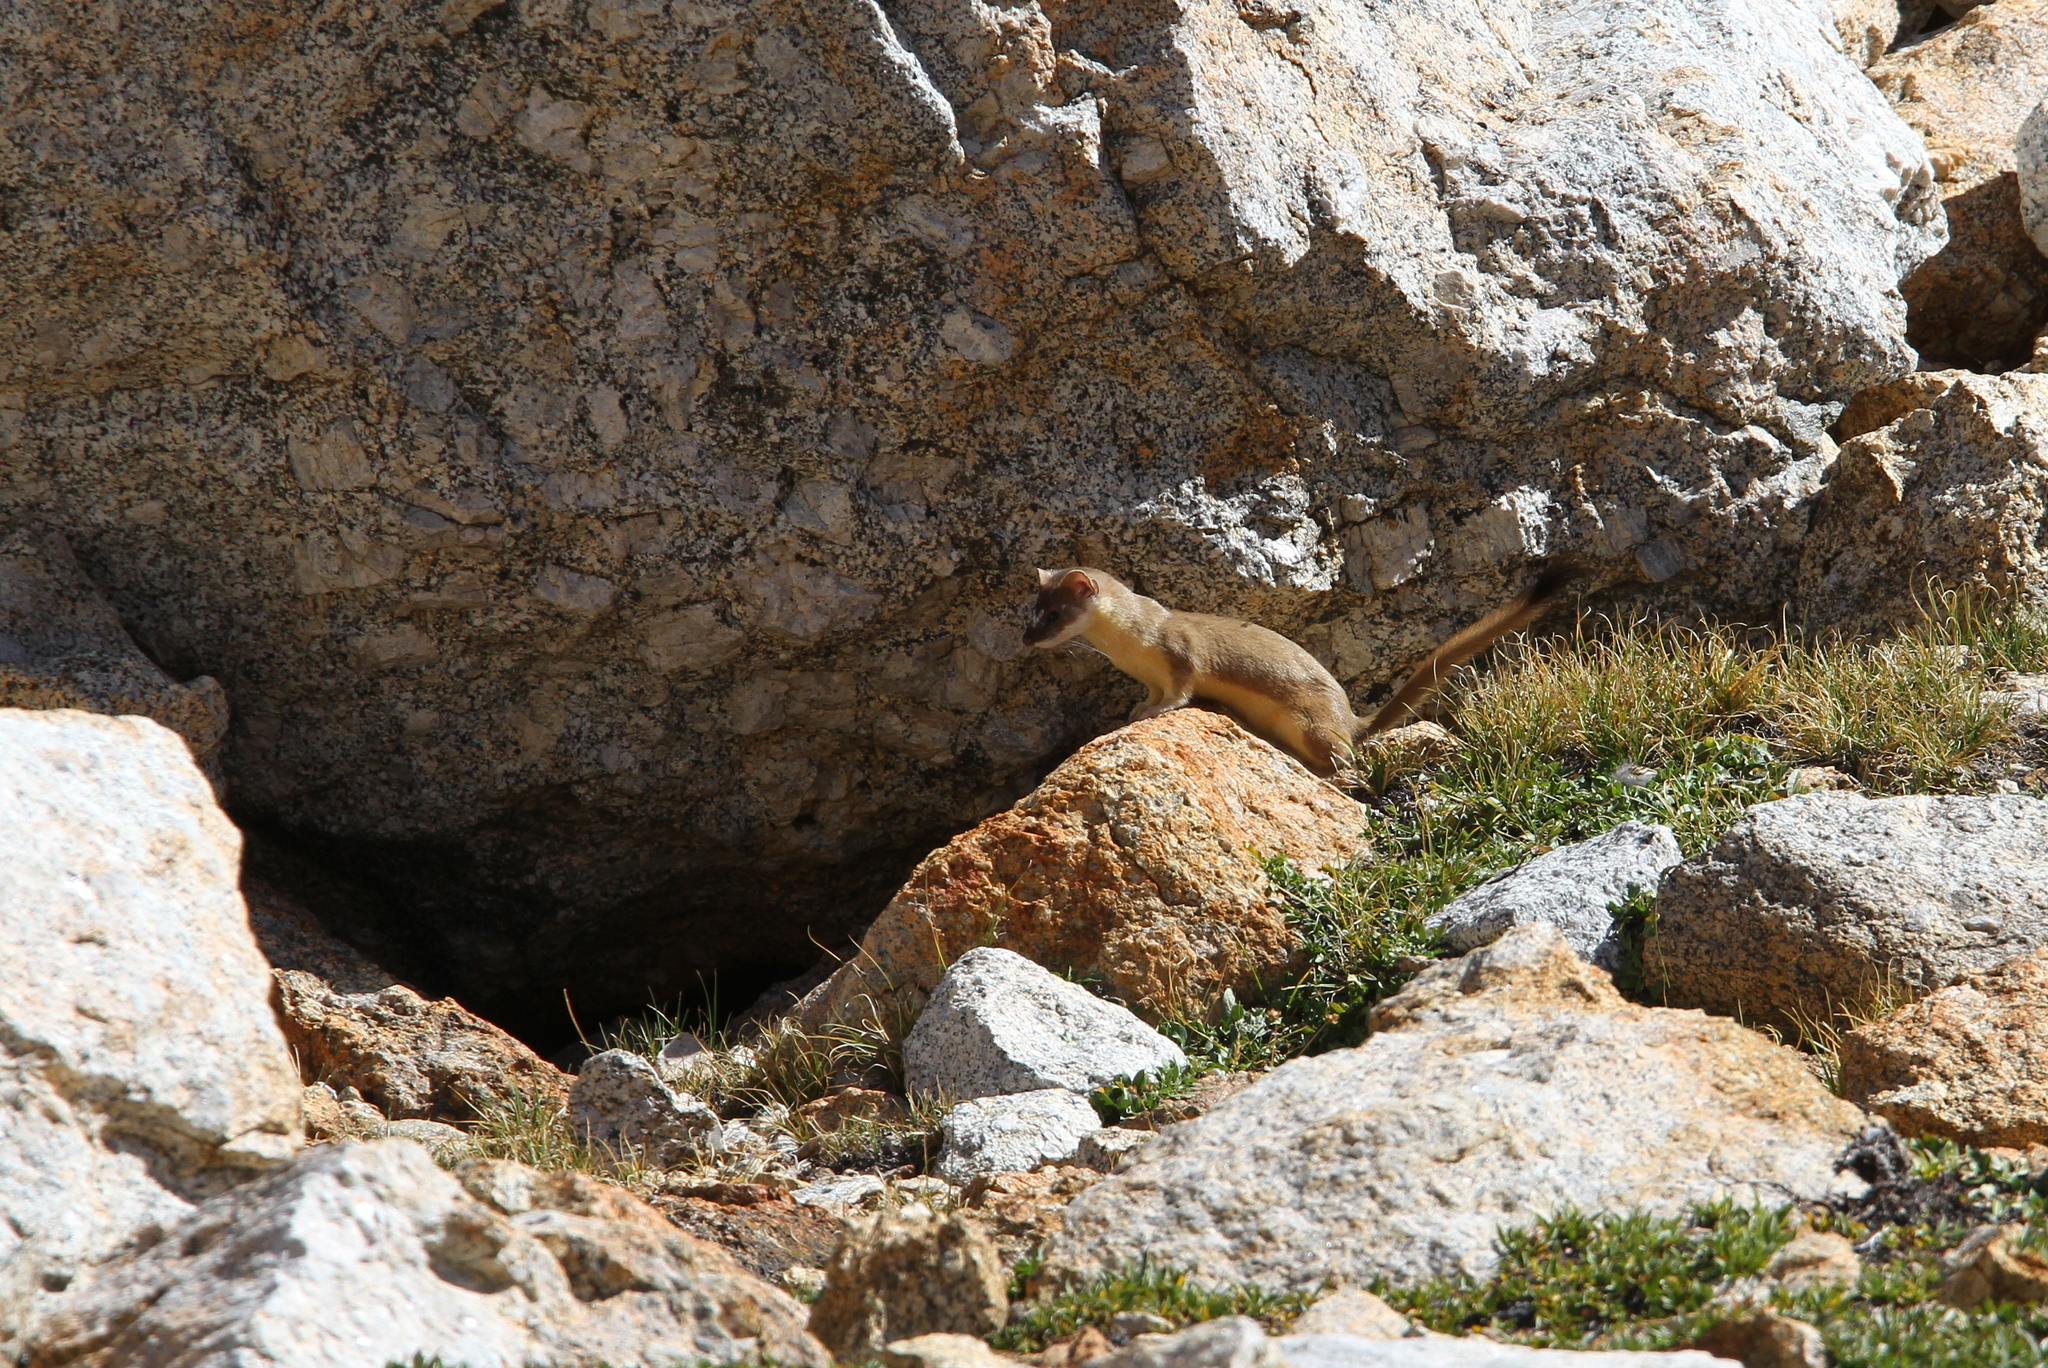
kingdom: Animalia
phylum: Chordata
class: Mammalia
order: Carnivora
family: Mustelidae
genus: Mustela
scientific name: Mustela
